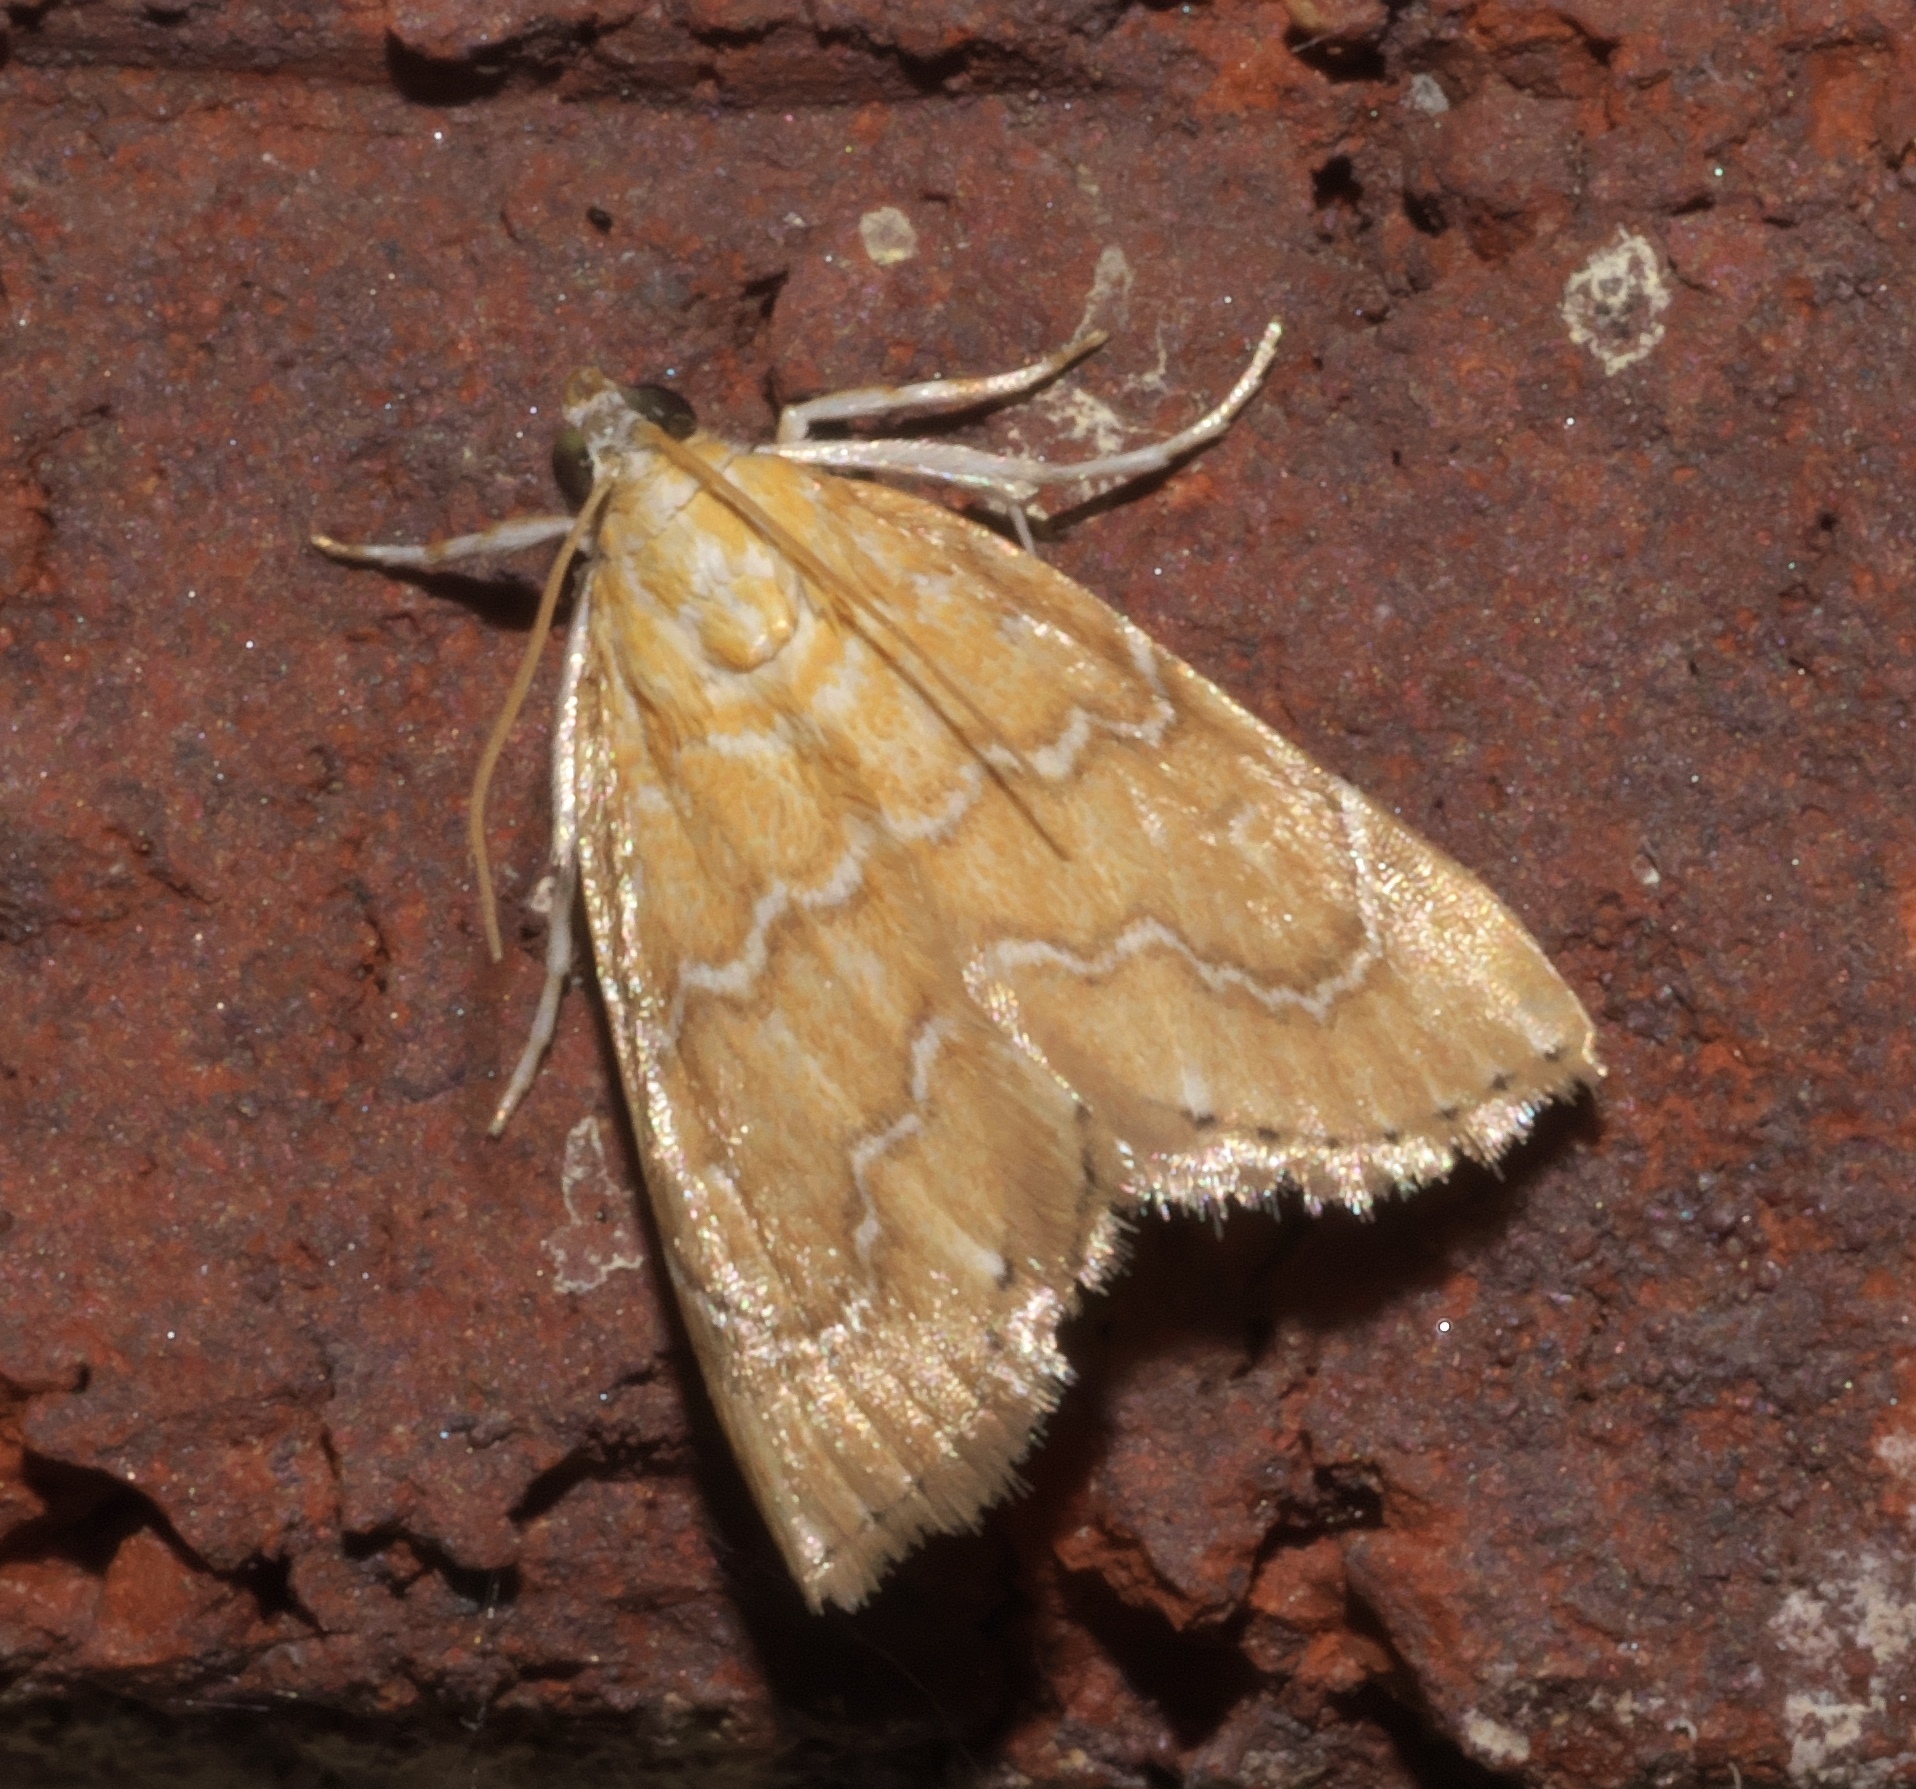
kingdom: Animalia
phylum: Arthropoda
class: Insecta
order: Lepidoptera
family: Crambidae
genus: Glaphyria
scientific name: Glaphyria sesquistrialis
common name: White-roped glaphyria
